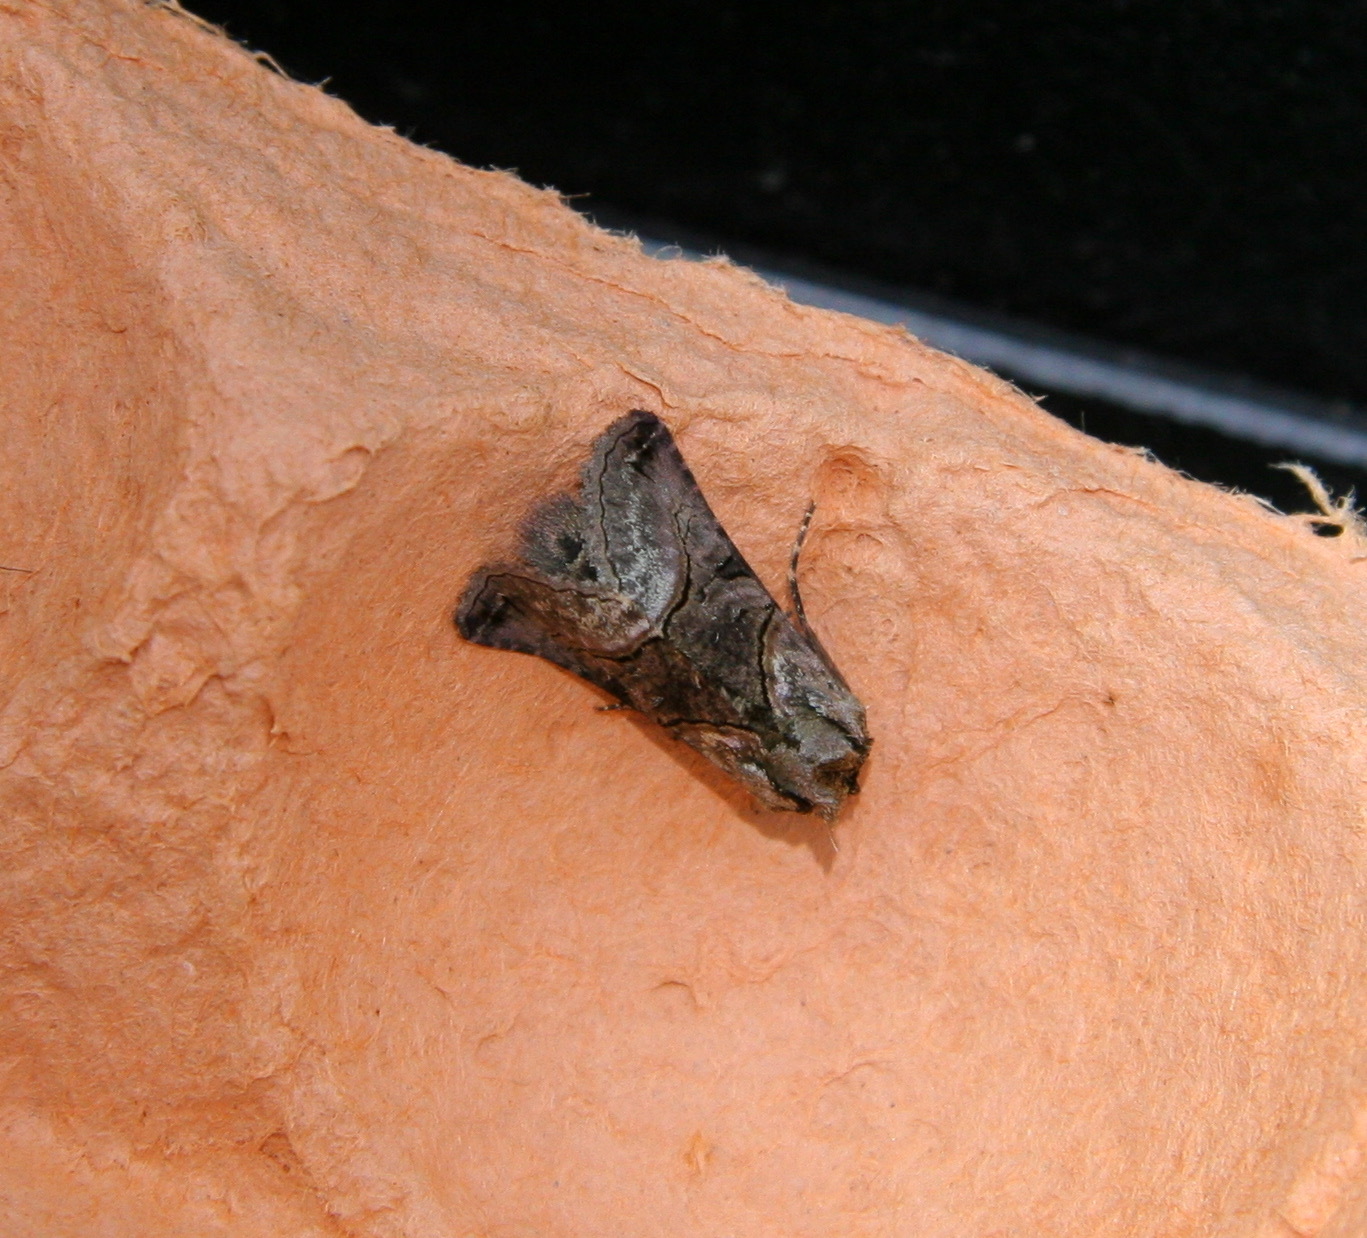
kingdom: Animalia
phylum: Arthropoda
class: Insecta
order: Lepidoptera
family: Noctuidae
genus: Abrostola
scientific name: Abrostola tripartita
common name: Spectacle
